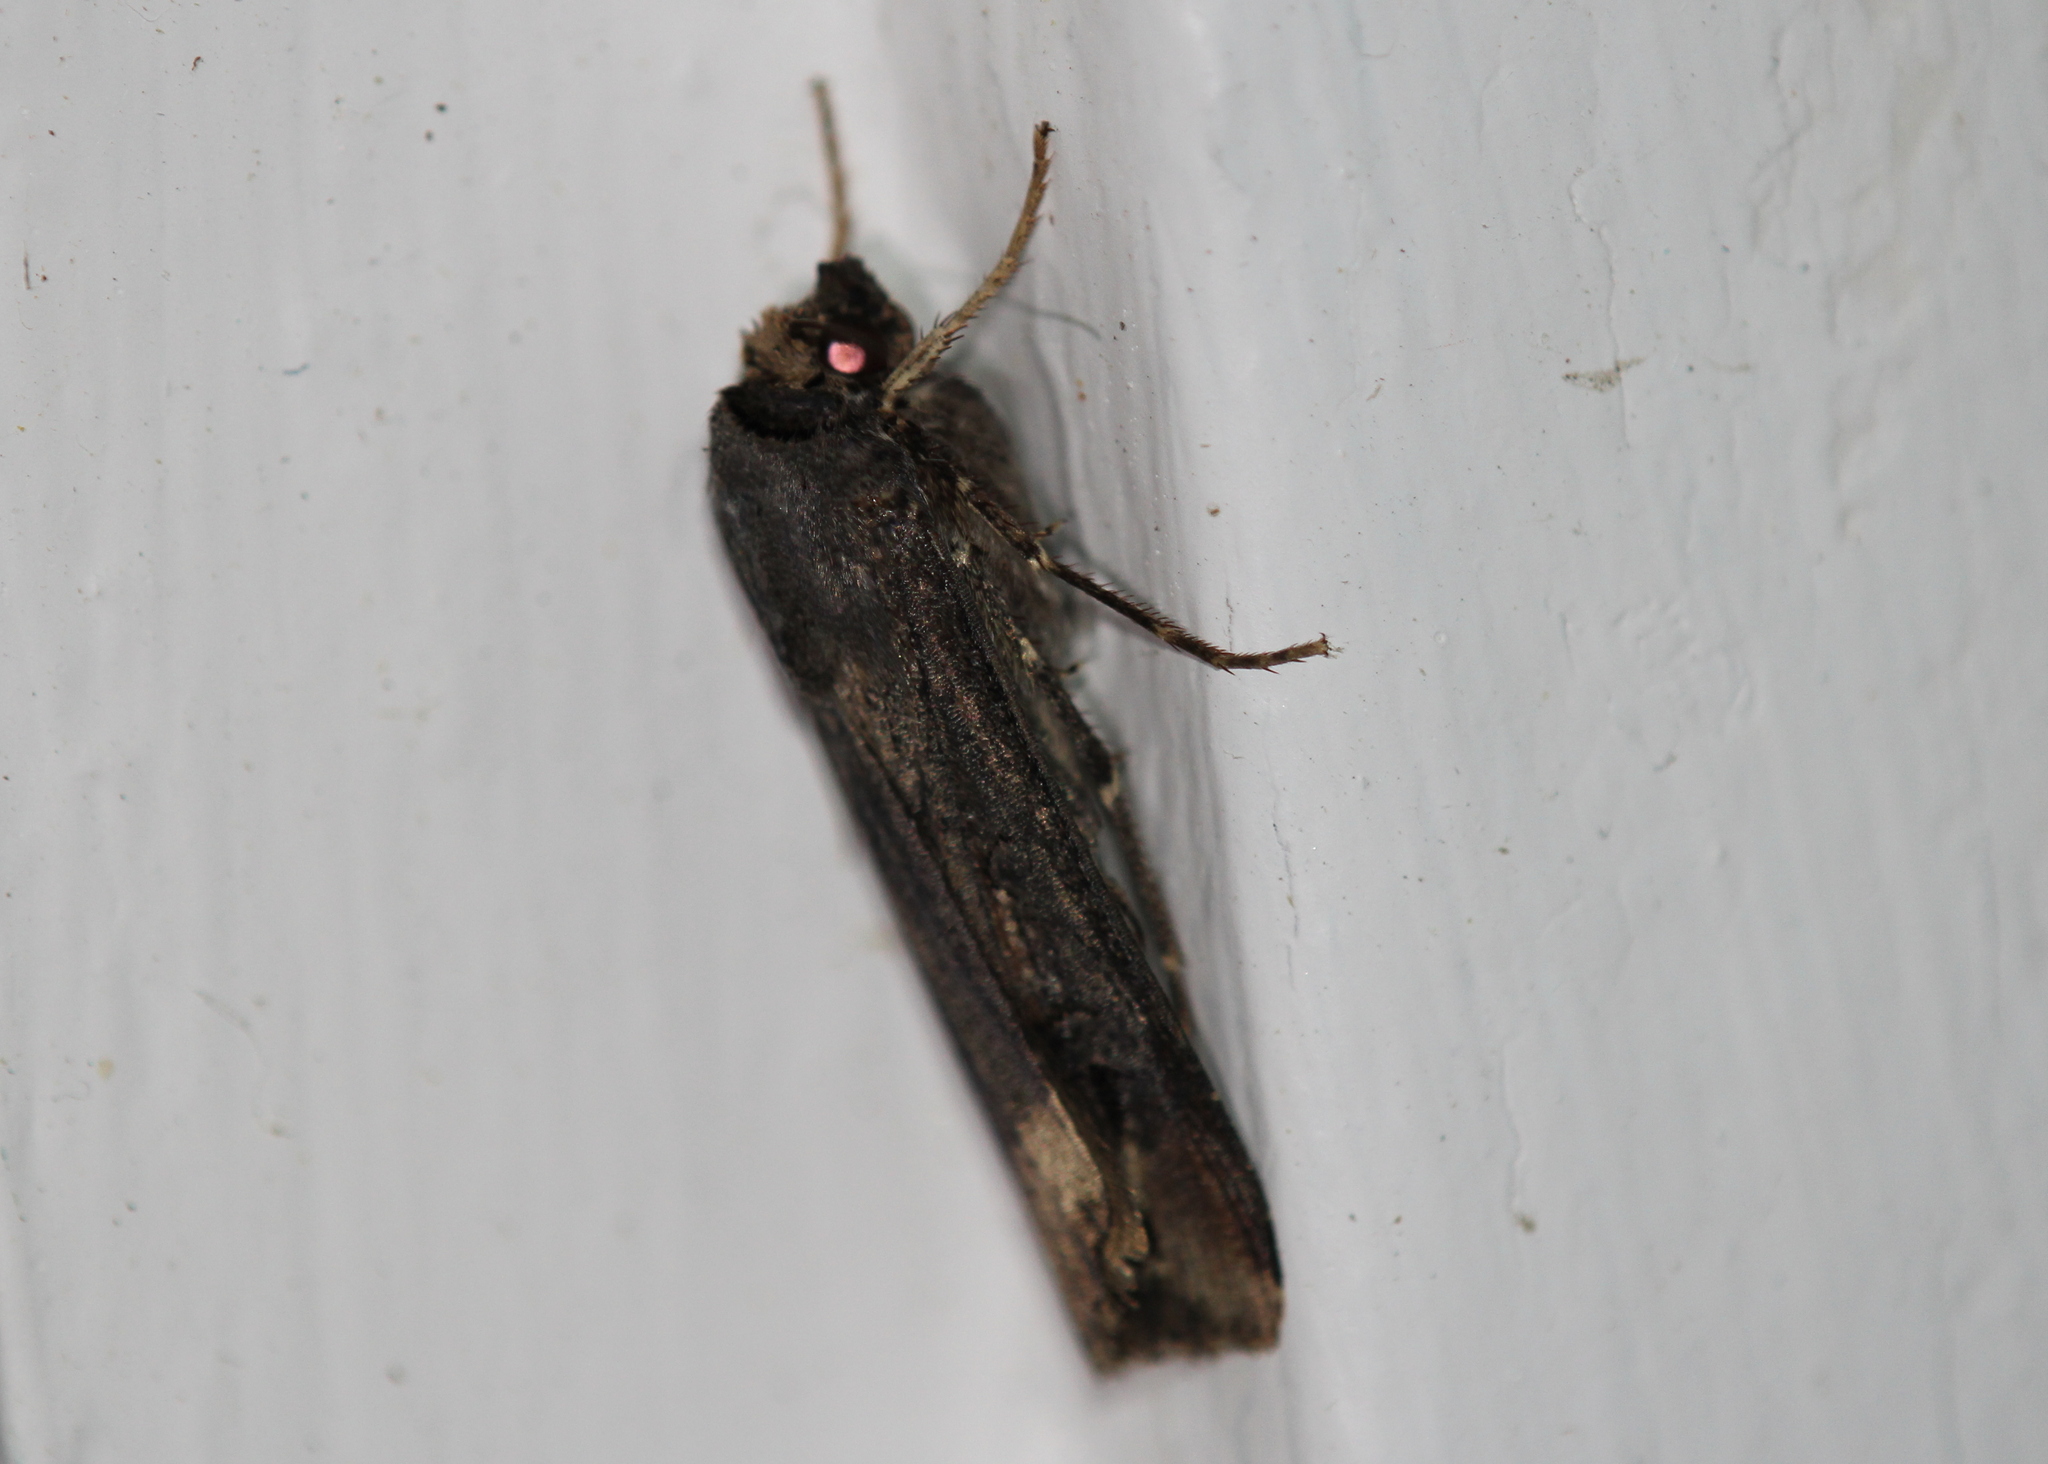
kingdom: Animalia
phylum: Arthropoda
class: Insecta
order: Lepidoptera
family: Noctuidae
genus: Agrotis
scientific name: Agrotis ipsilon
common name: Dark sword-grass
